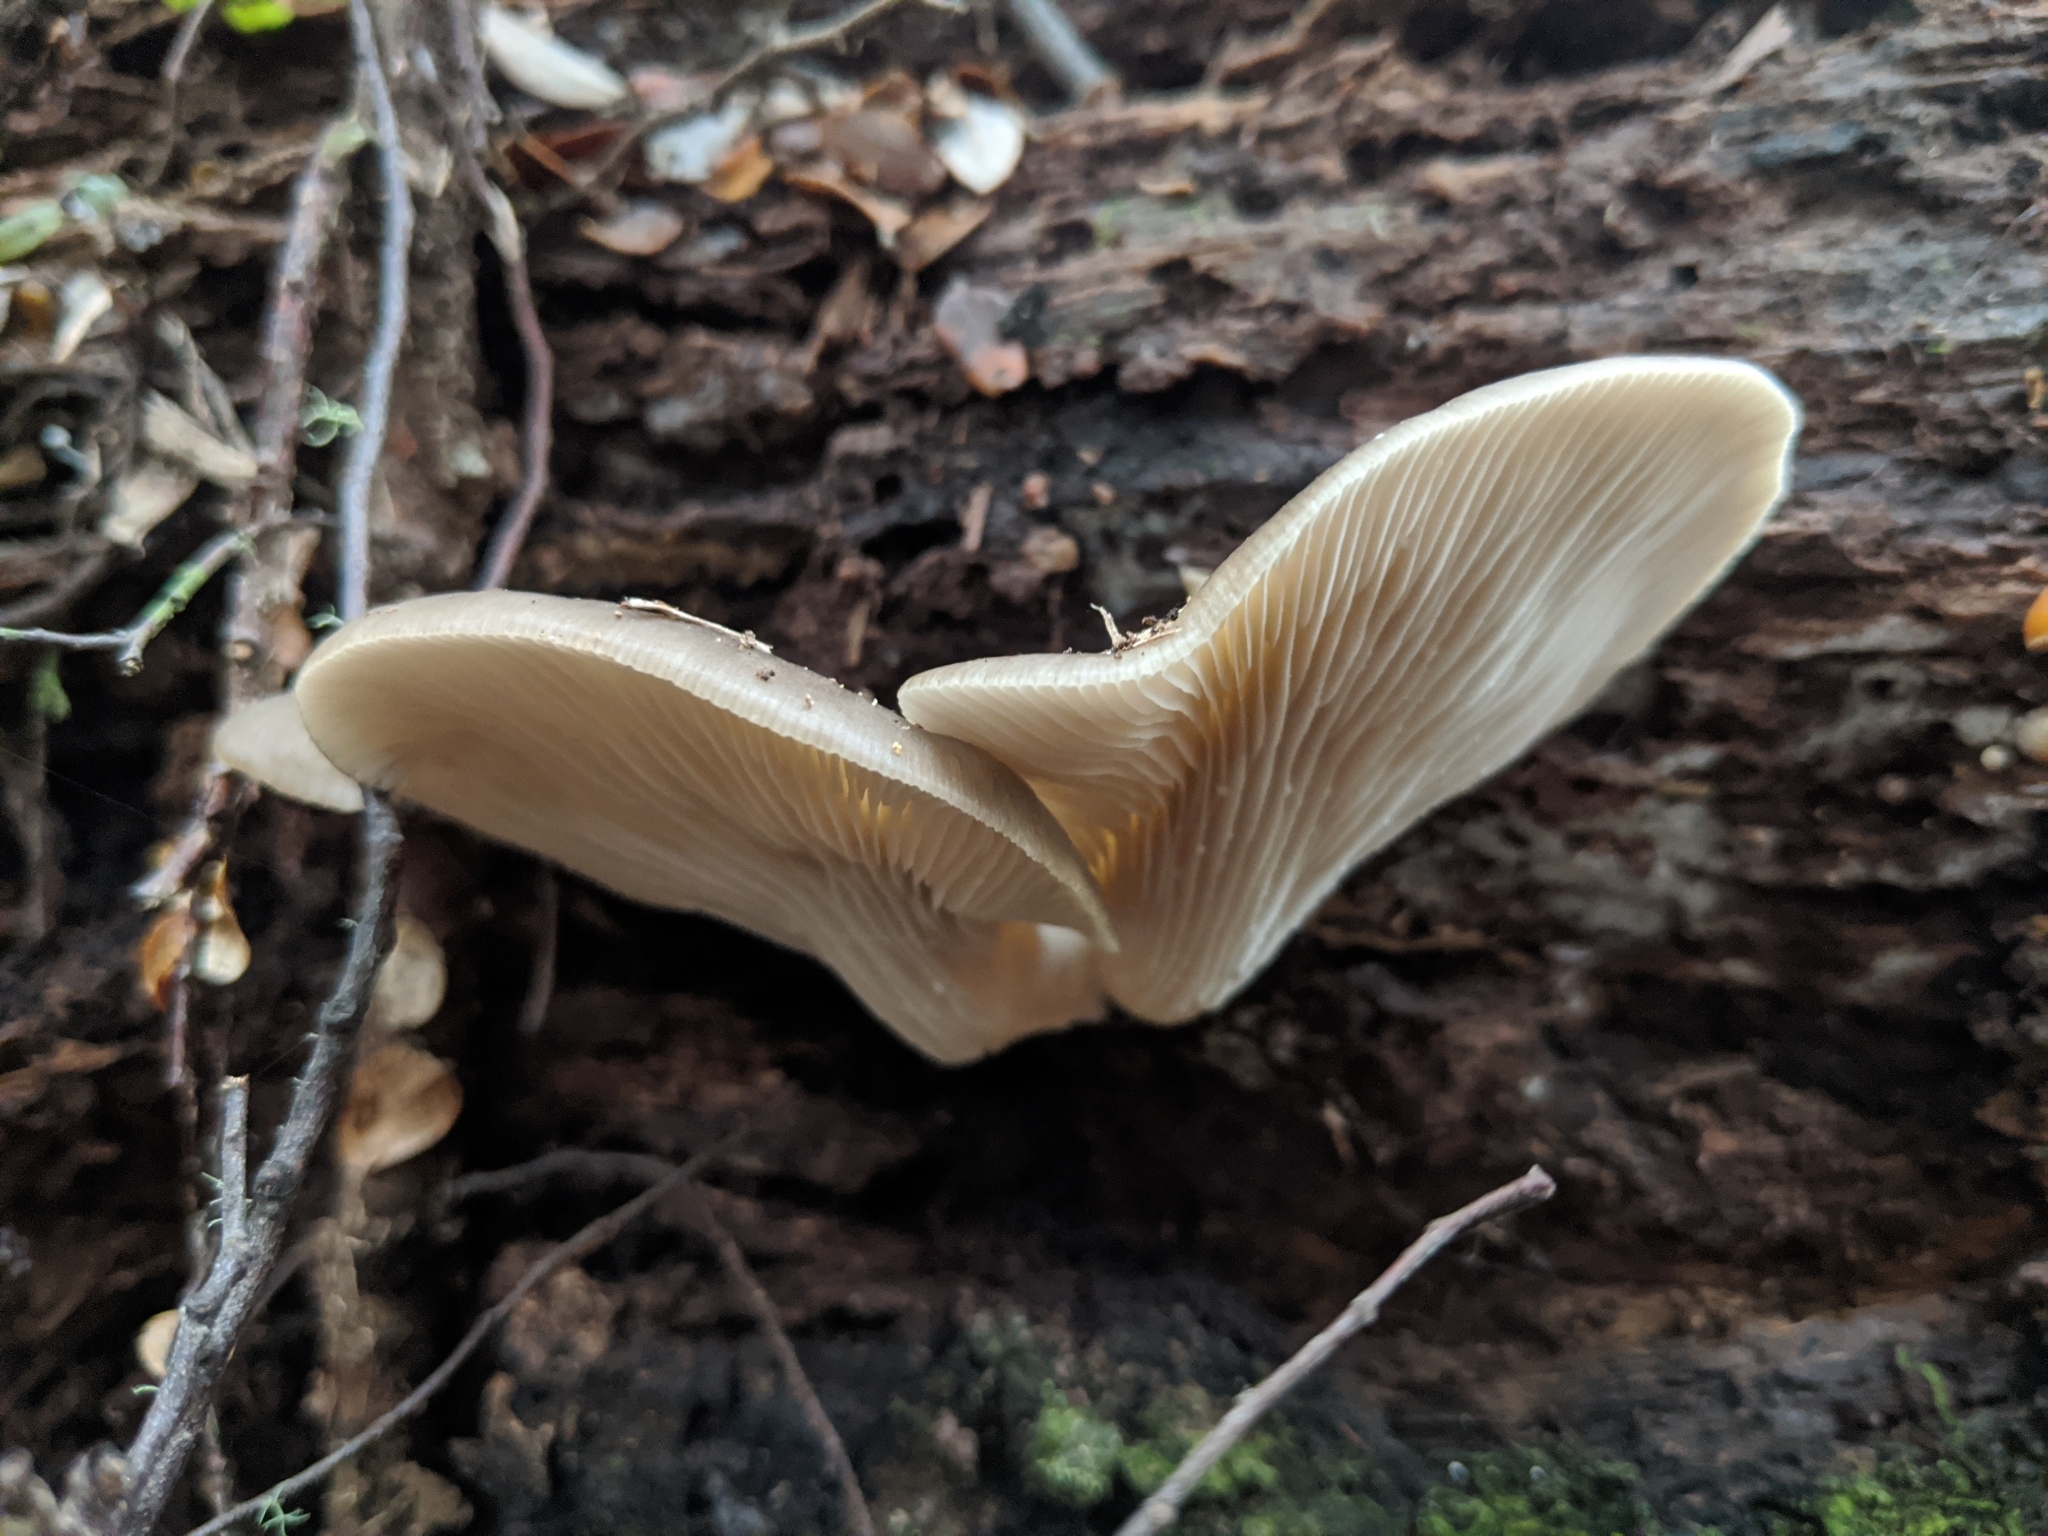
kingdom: Fungi
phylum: Basidiomycota
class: Agaricomycetes
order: Agaricales
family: Pleurotaceae
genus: Pleurotus
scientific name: Pleurotus purpureo-olivaceus
